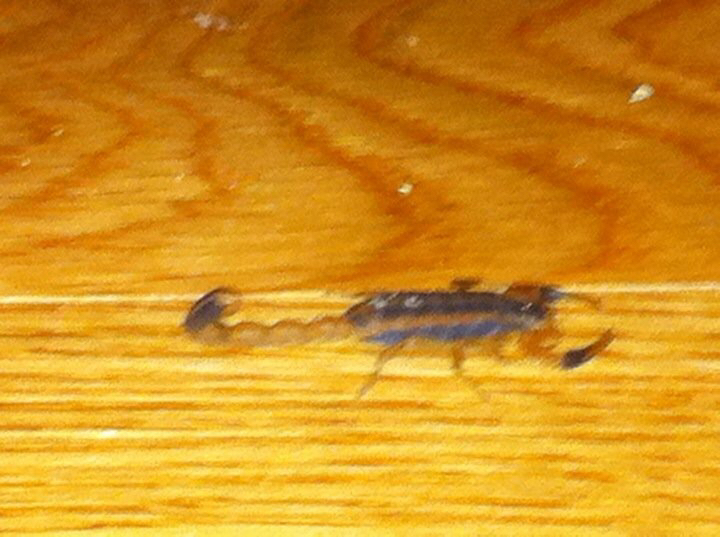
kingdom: Animalia
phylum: Arthropoda
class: Arachnida
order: Scorpiones
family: Buthidae
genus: Centruroides
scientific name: Centruroides vittatus
